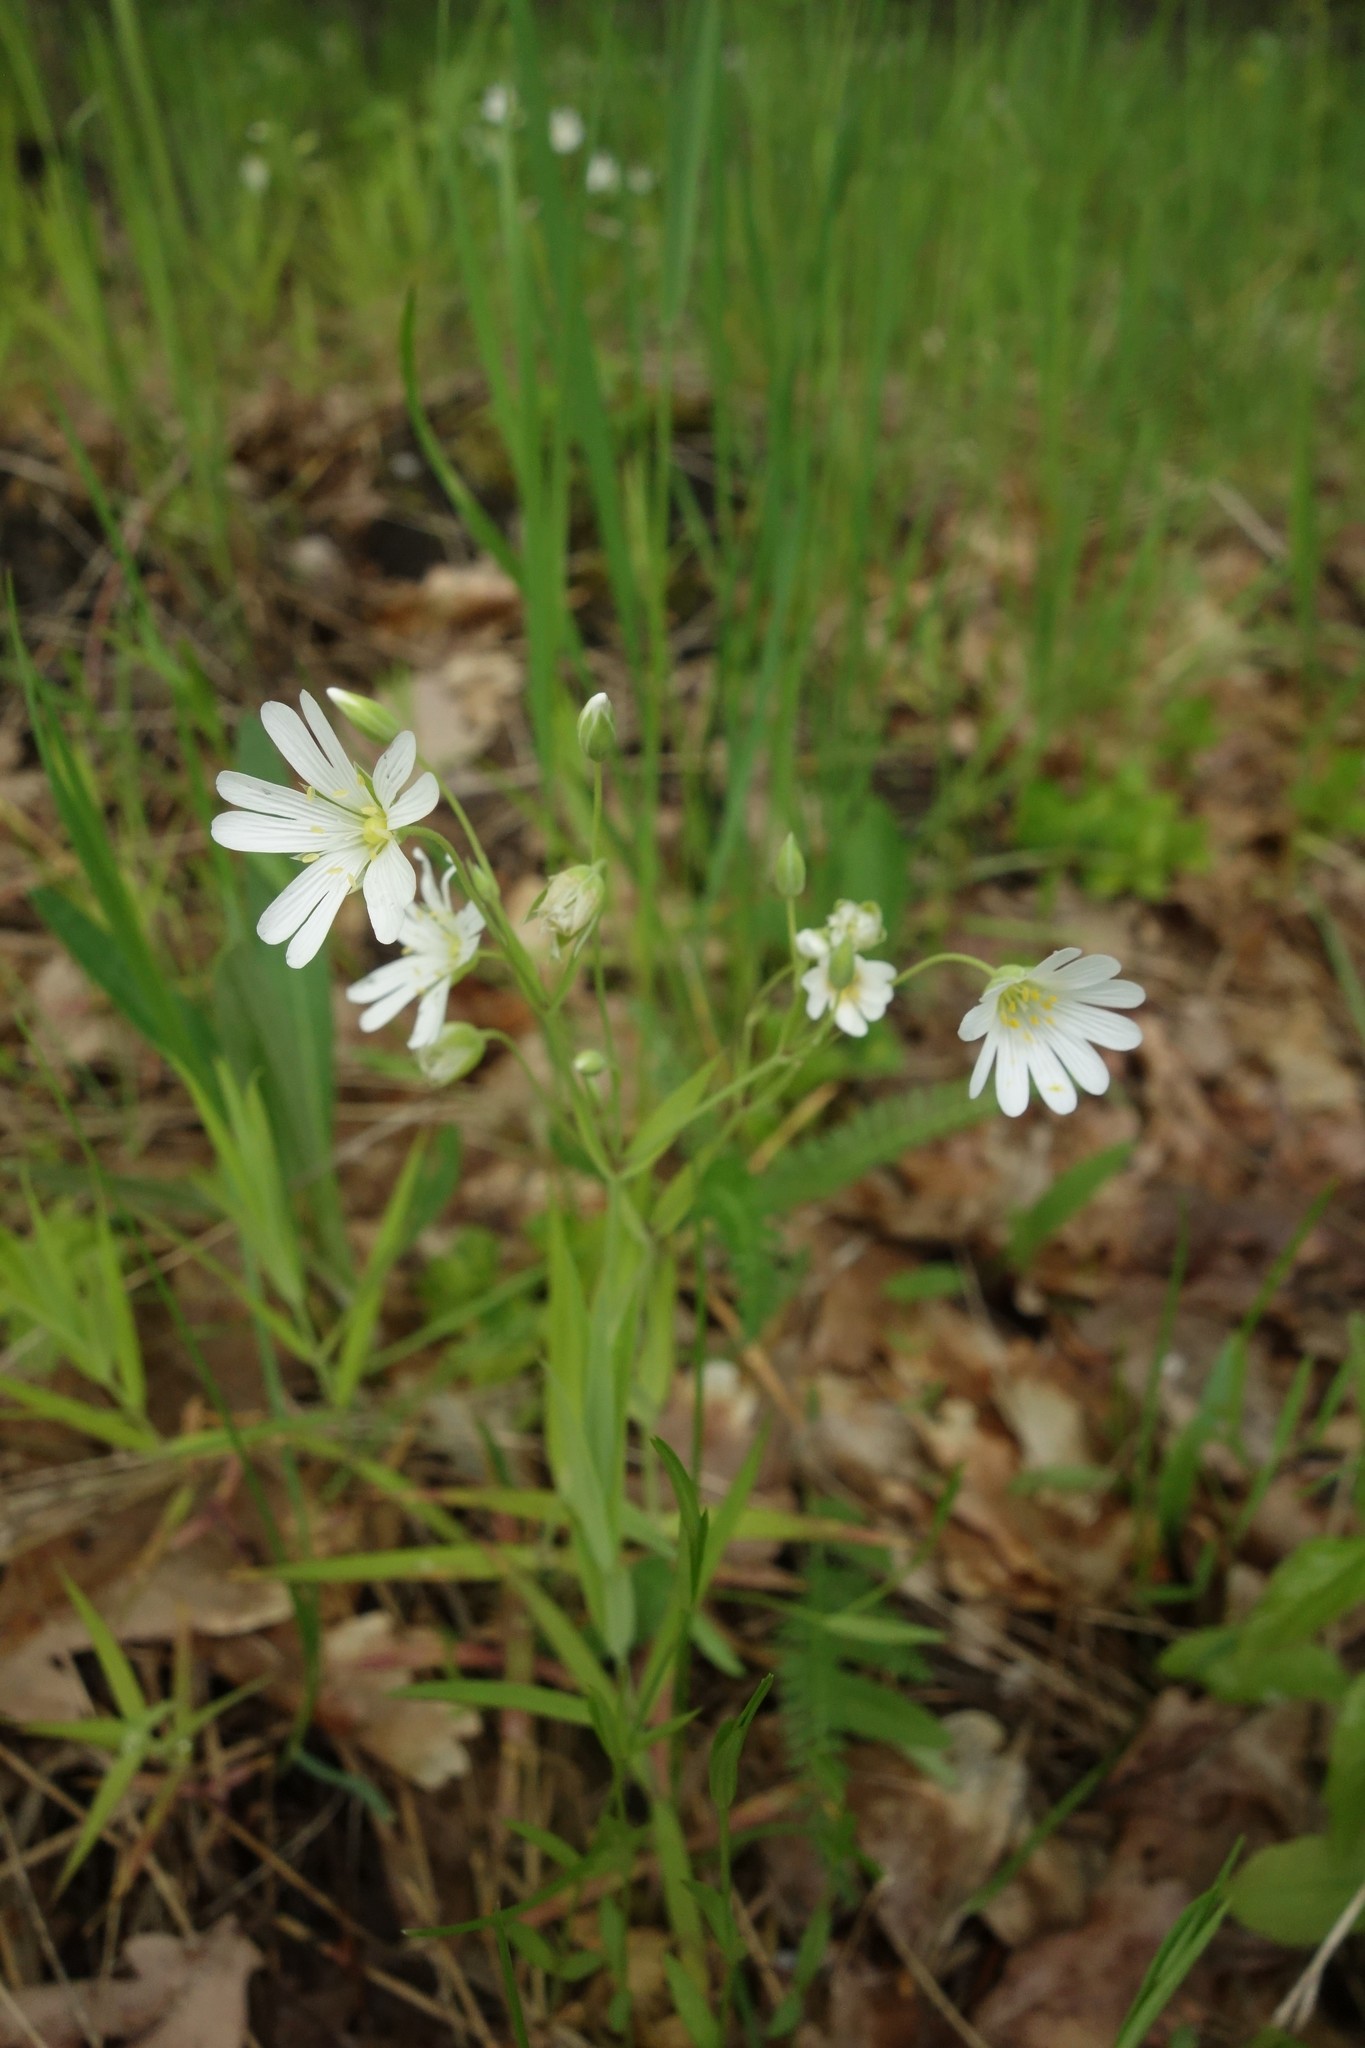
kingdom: Plantae
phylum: Tracheophyta
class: Magnoliopsida
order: Caryophyllales
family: Caryophyllaceae
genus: Rabelera
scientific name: Rabelera holostea
